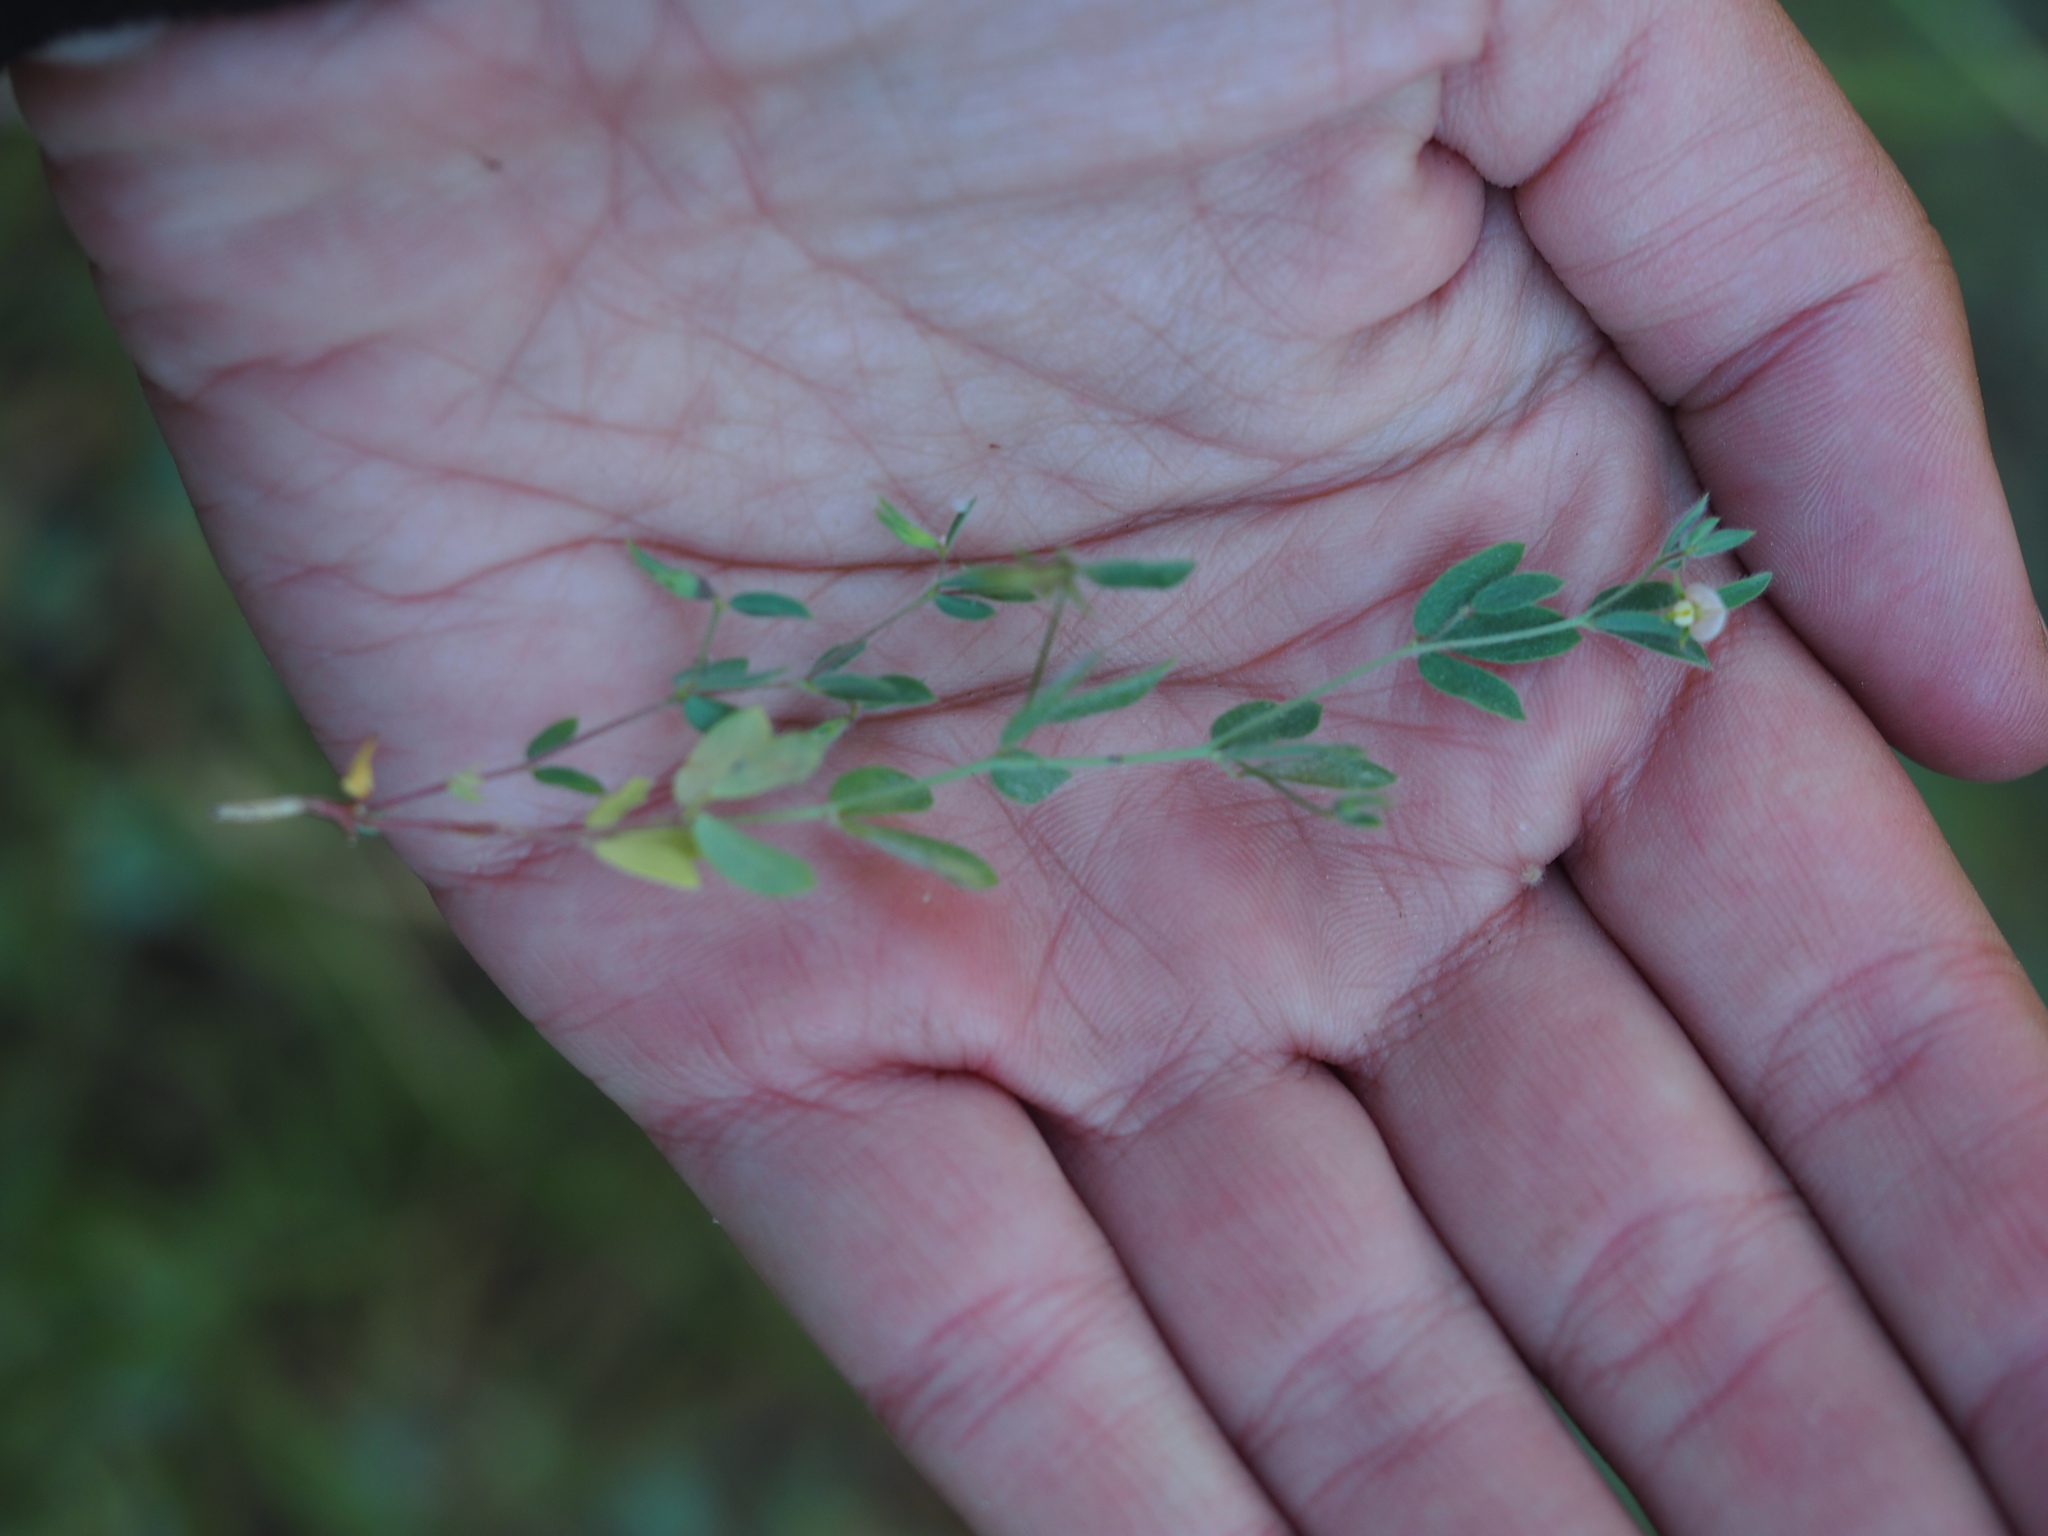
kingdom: Plantae
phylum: Tracheophyta
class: Magnoliopsida
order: Fabales
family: Fabaceae
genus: Acmispon
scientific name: Acmispon americanus
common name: American bird's-foot trefoil
